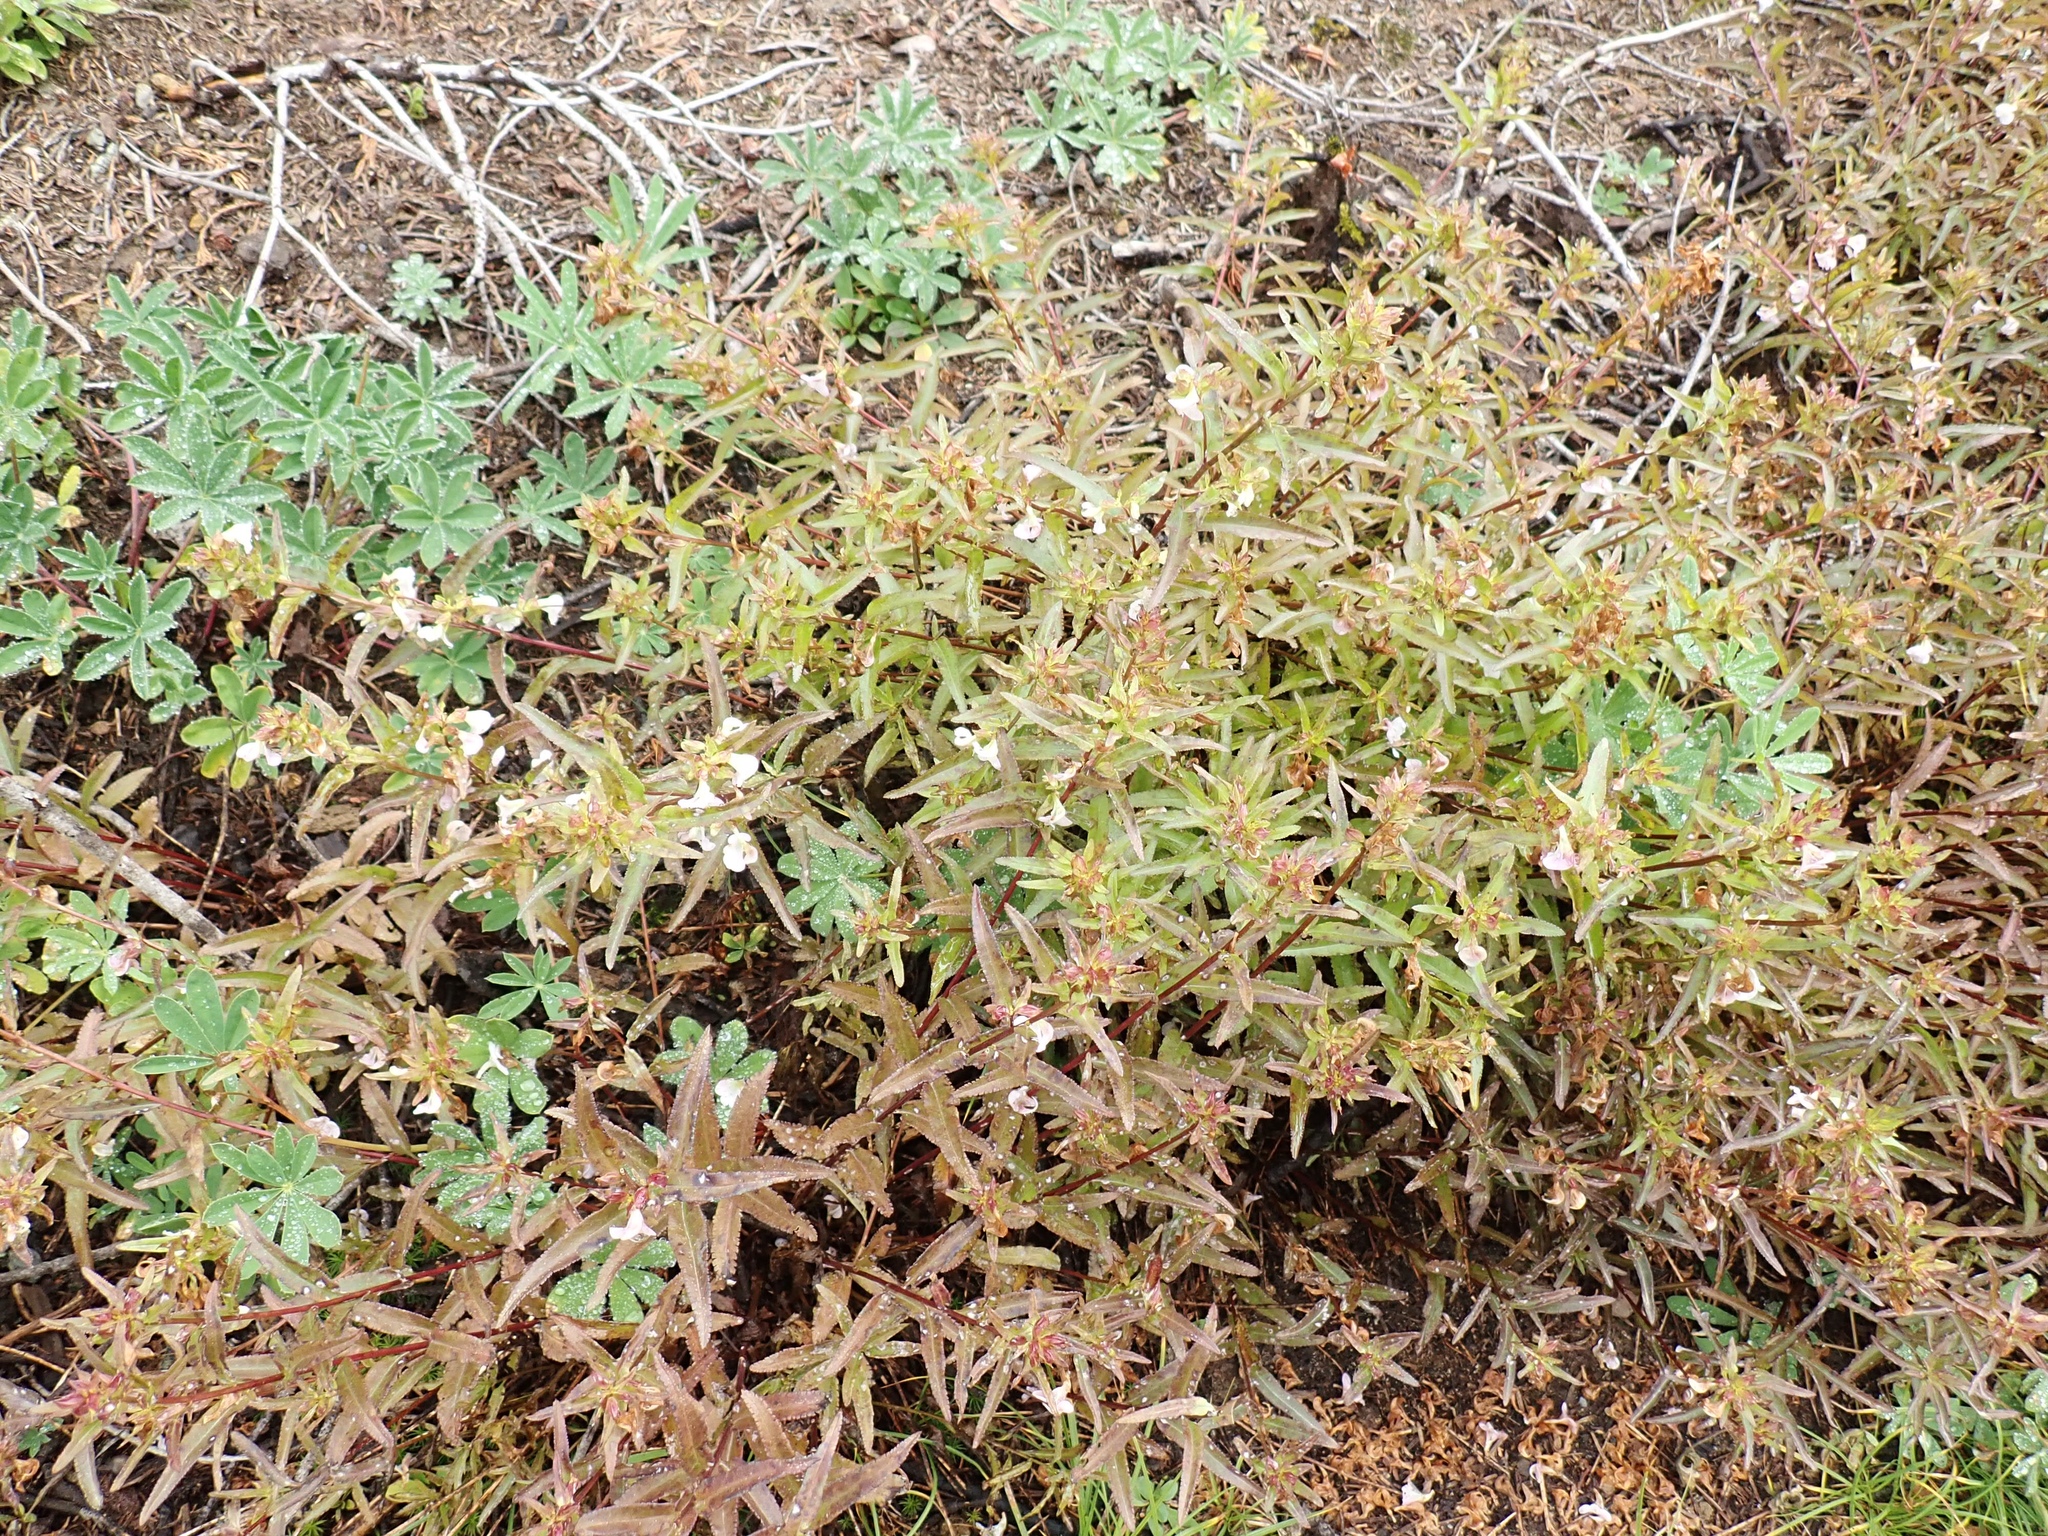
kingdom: Plantae
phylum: Tracheophyta
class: Magnoliopsida
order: Lamiales
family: Orobanchaceae
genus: Pedicularis
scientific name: Pedicularis racemosa
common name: Leafy lousewort
